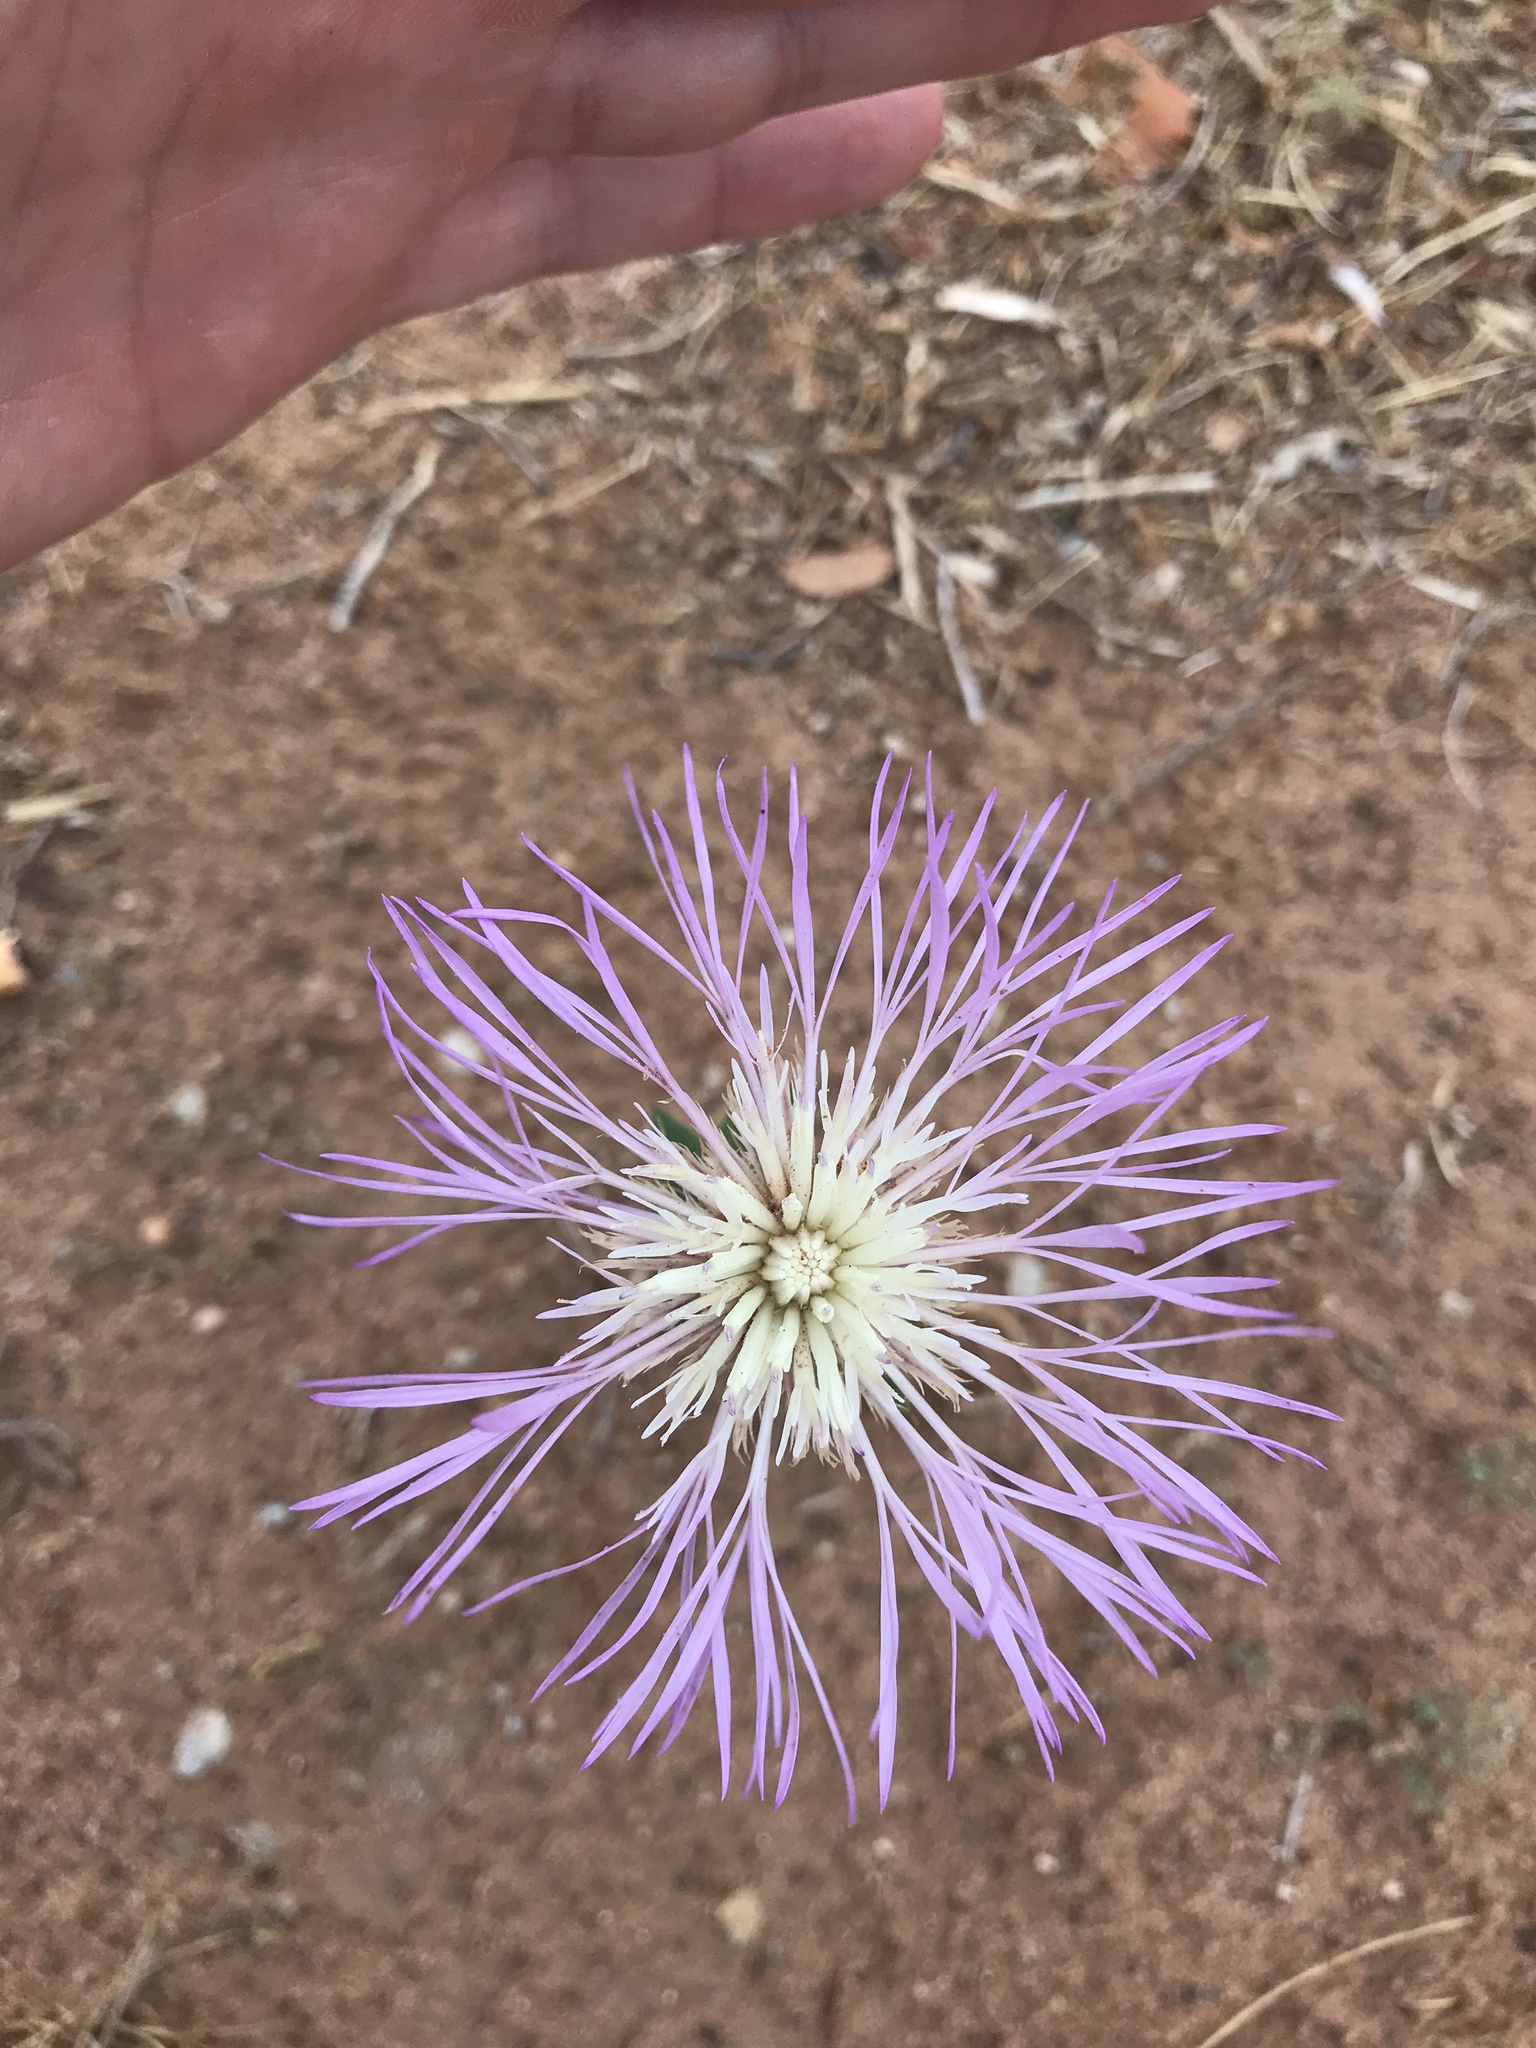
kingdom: Plantae
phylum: Tracheophyta
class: Magnoliopsida
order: Asterales
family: Asteraceae
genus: Plectocephalus
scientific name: Plectocephalus americanus
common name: American basket-flower
